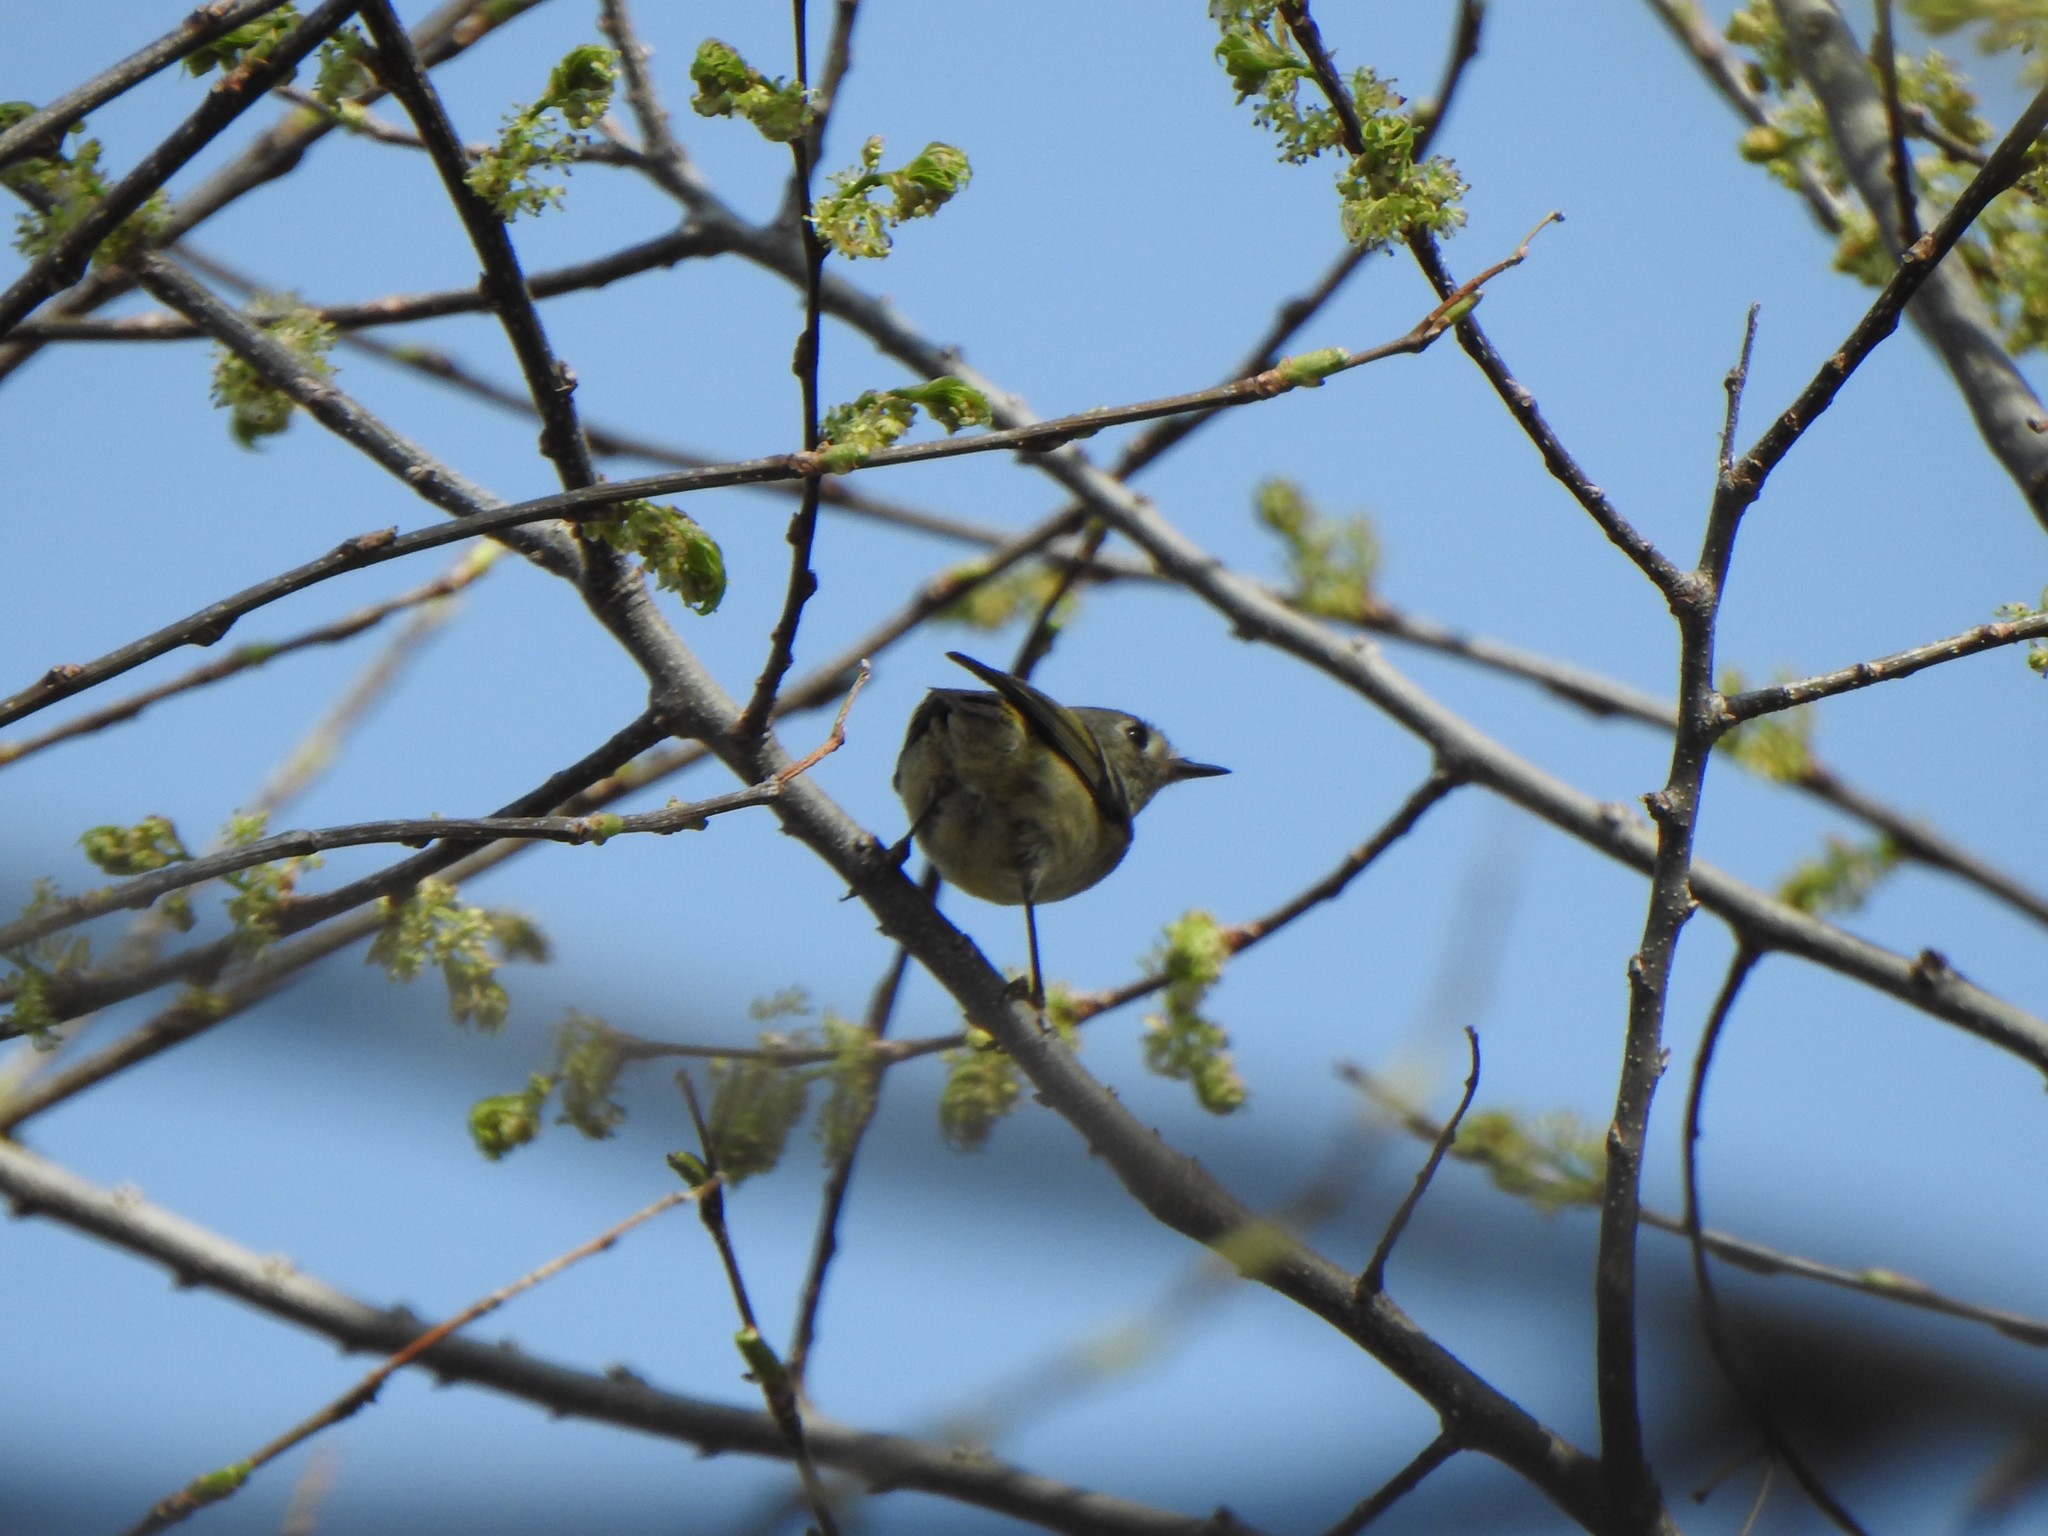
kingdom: Animalia
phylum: Chordata
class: Aves
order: Passeriformes
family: Regulidae
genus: Regulus
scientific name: Regulus calendula
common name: Ruby-crowned kinglet
